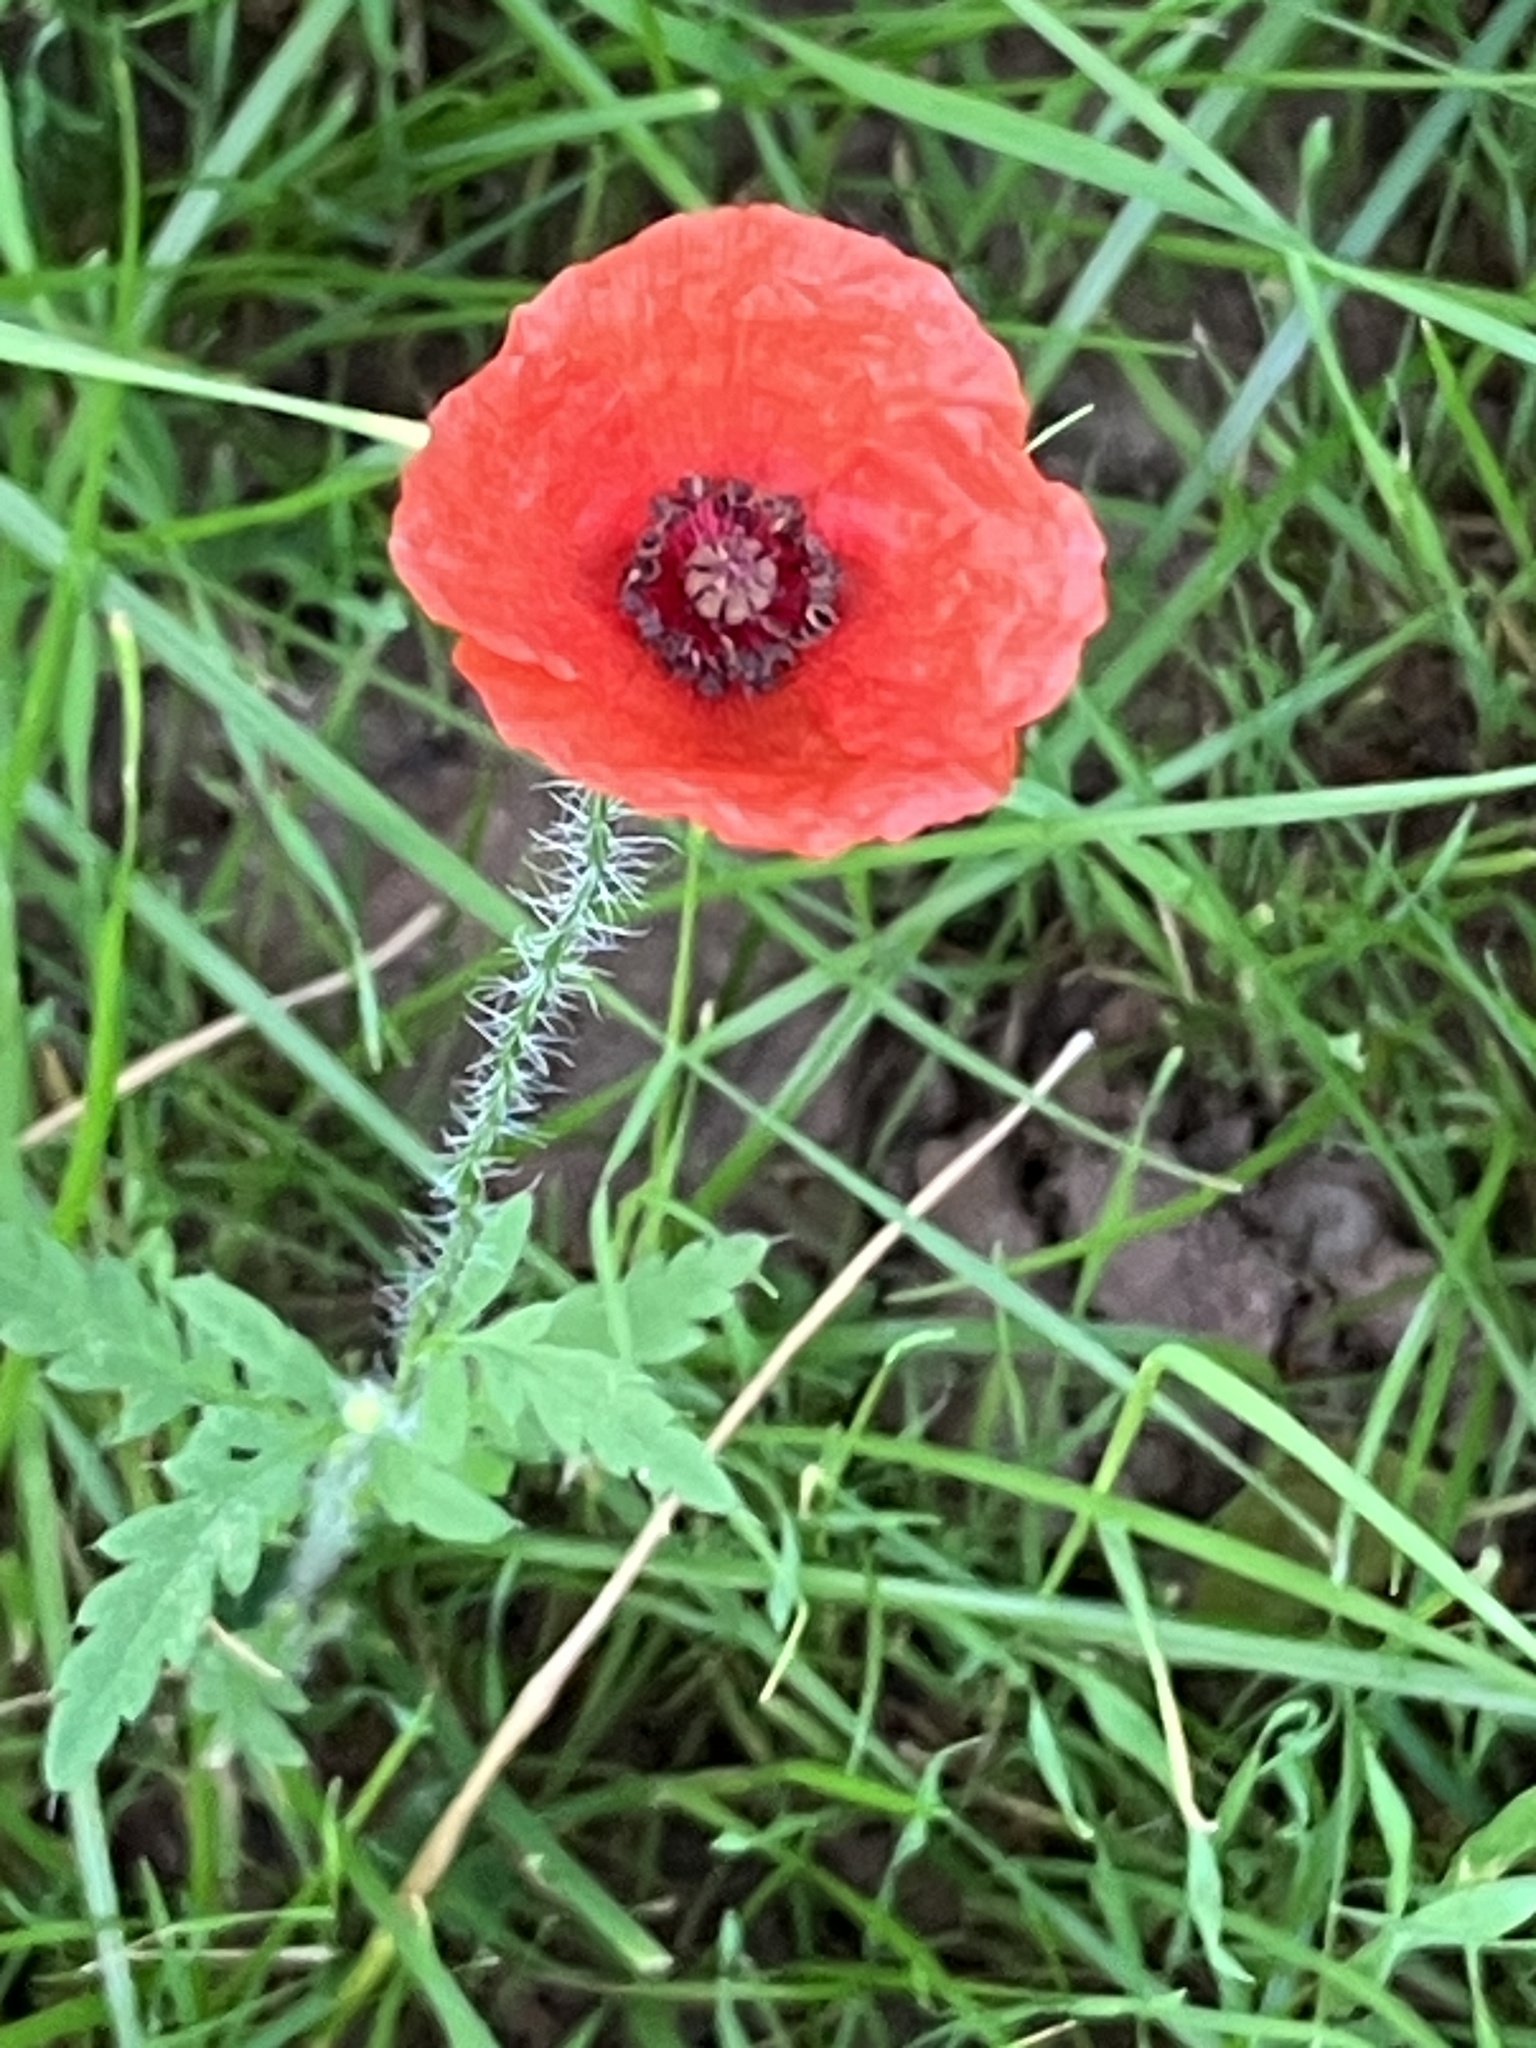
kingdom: Plantae
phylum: Tracheophyta
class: Magnoliopsida
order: Ranunculales
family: Papaveraceae
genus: Papaver
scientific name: Papaver rhoeas
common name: Corn poppy
